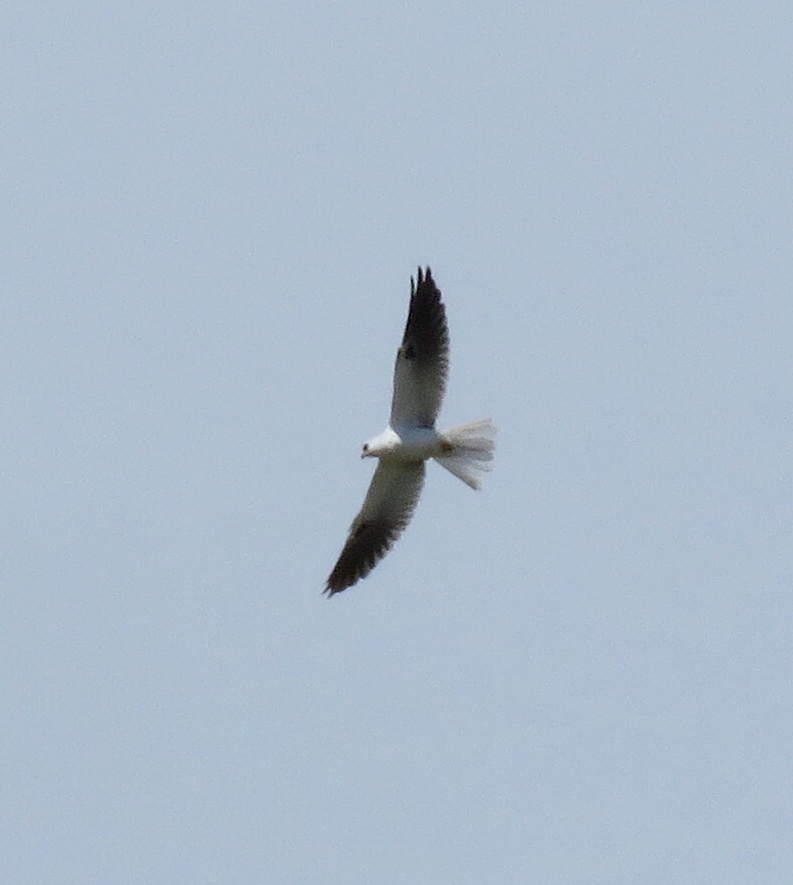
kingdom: Animalia
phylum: Chordata
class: Aves
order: Accipitriformes
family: Accipitridae
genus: Elanus
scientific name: Elanus leucurus
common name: White-tailed kite
